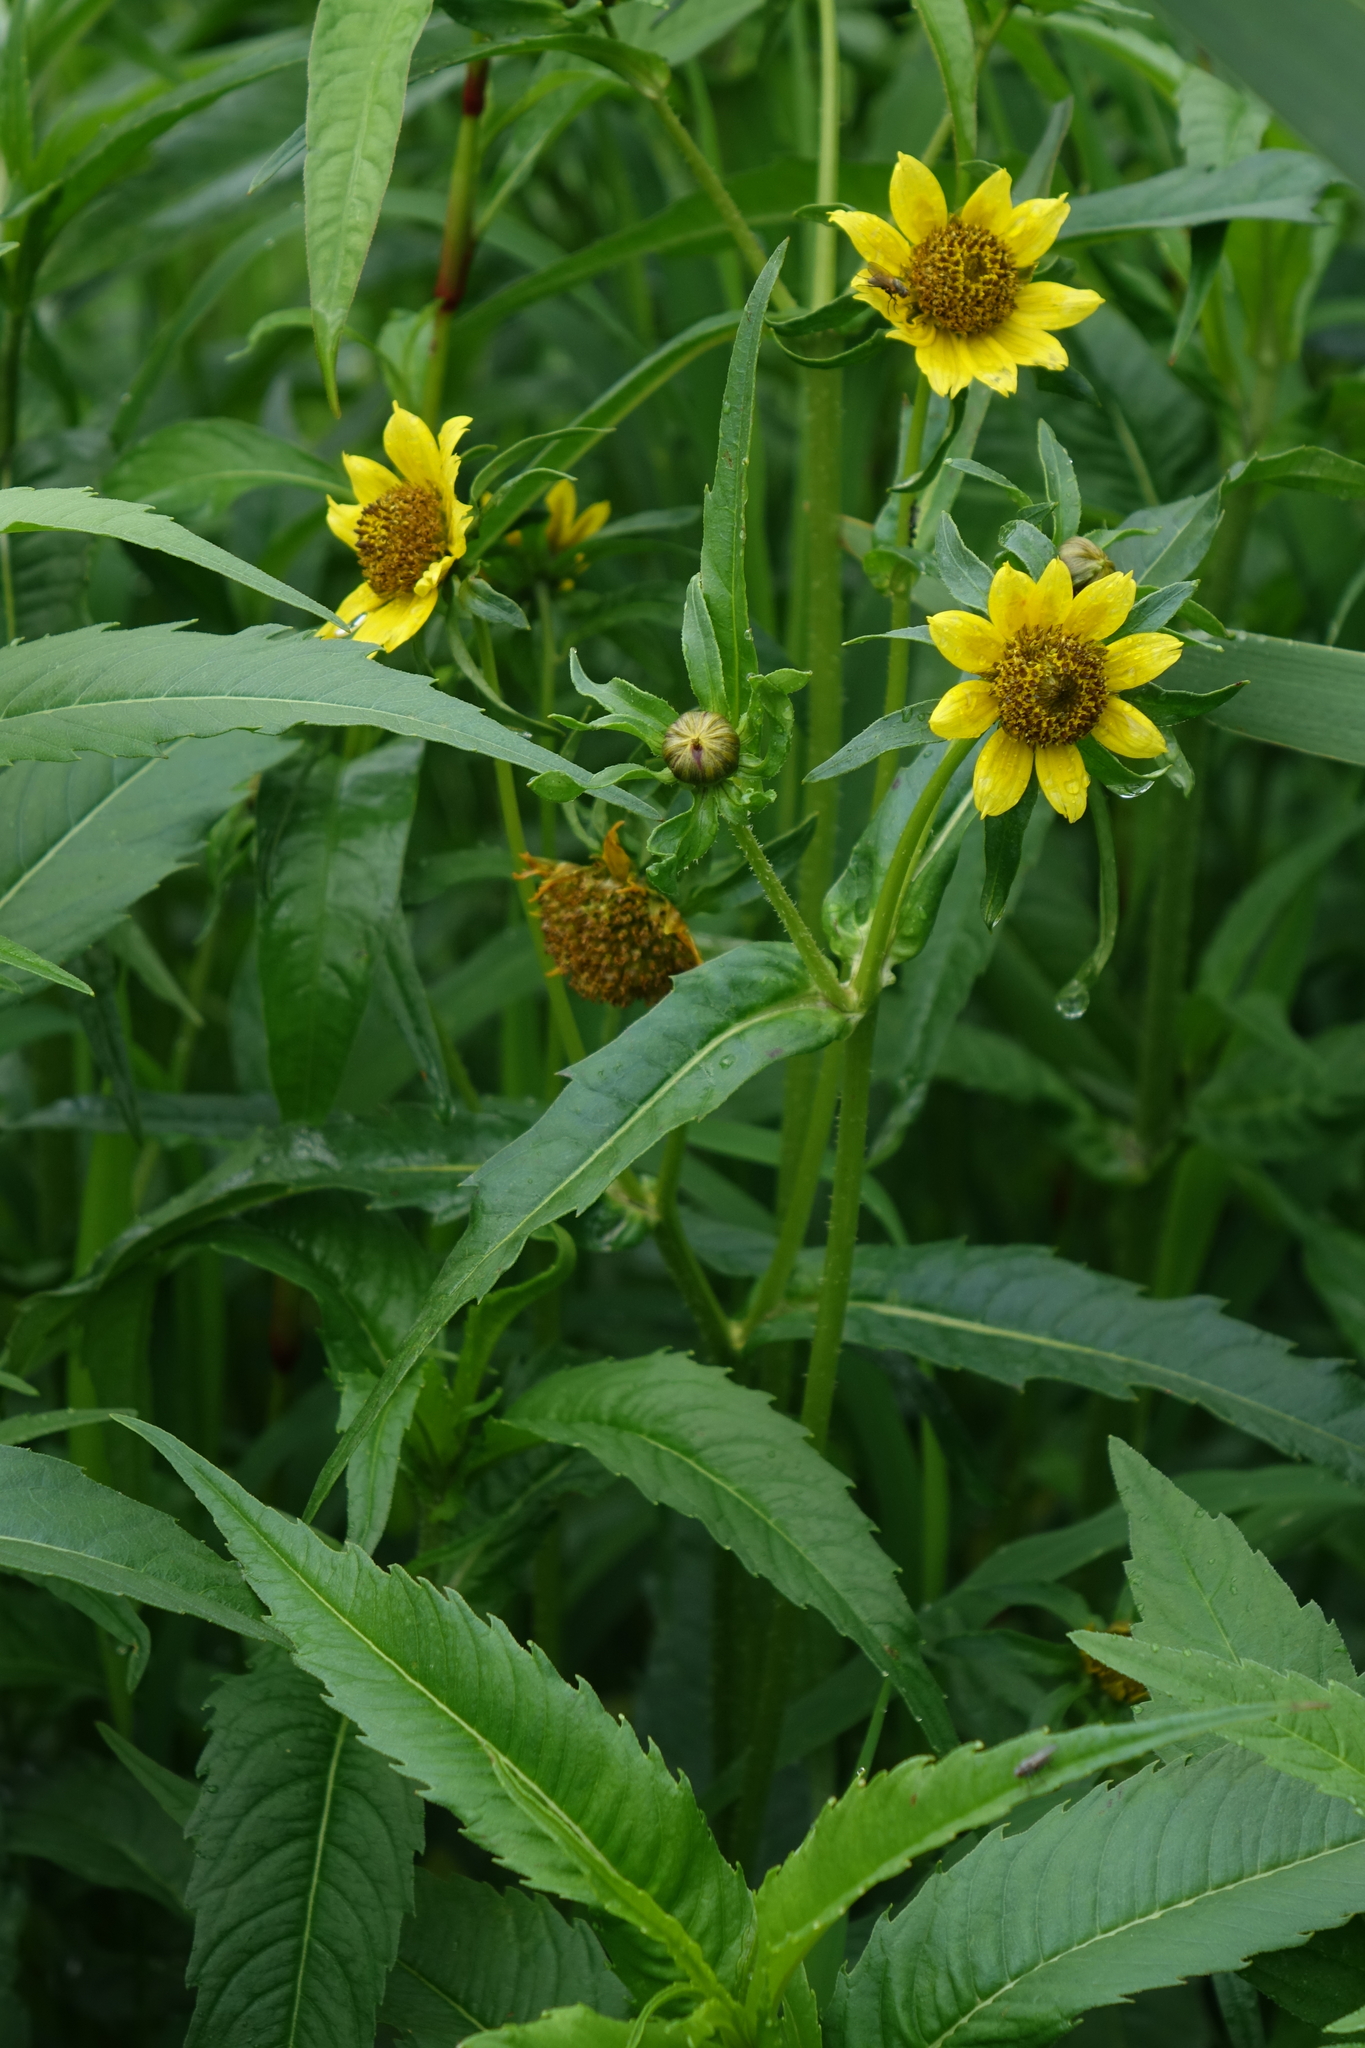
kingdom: Plantae
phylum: Tracheophyta
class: Magnoliopsida
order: Asterales
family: Asteraceae
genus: Bidens
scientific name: Bidens cernua
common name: Nodding bur-marigold
